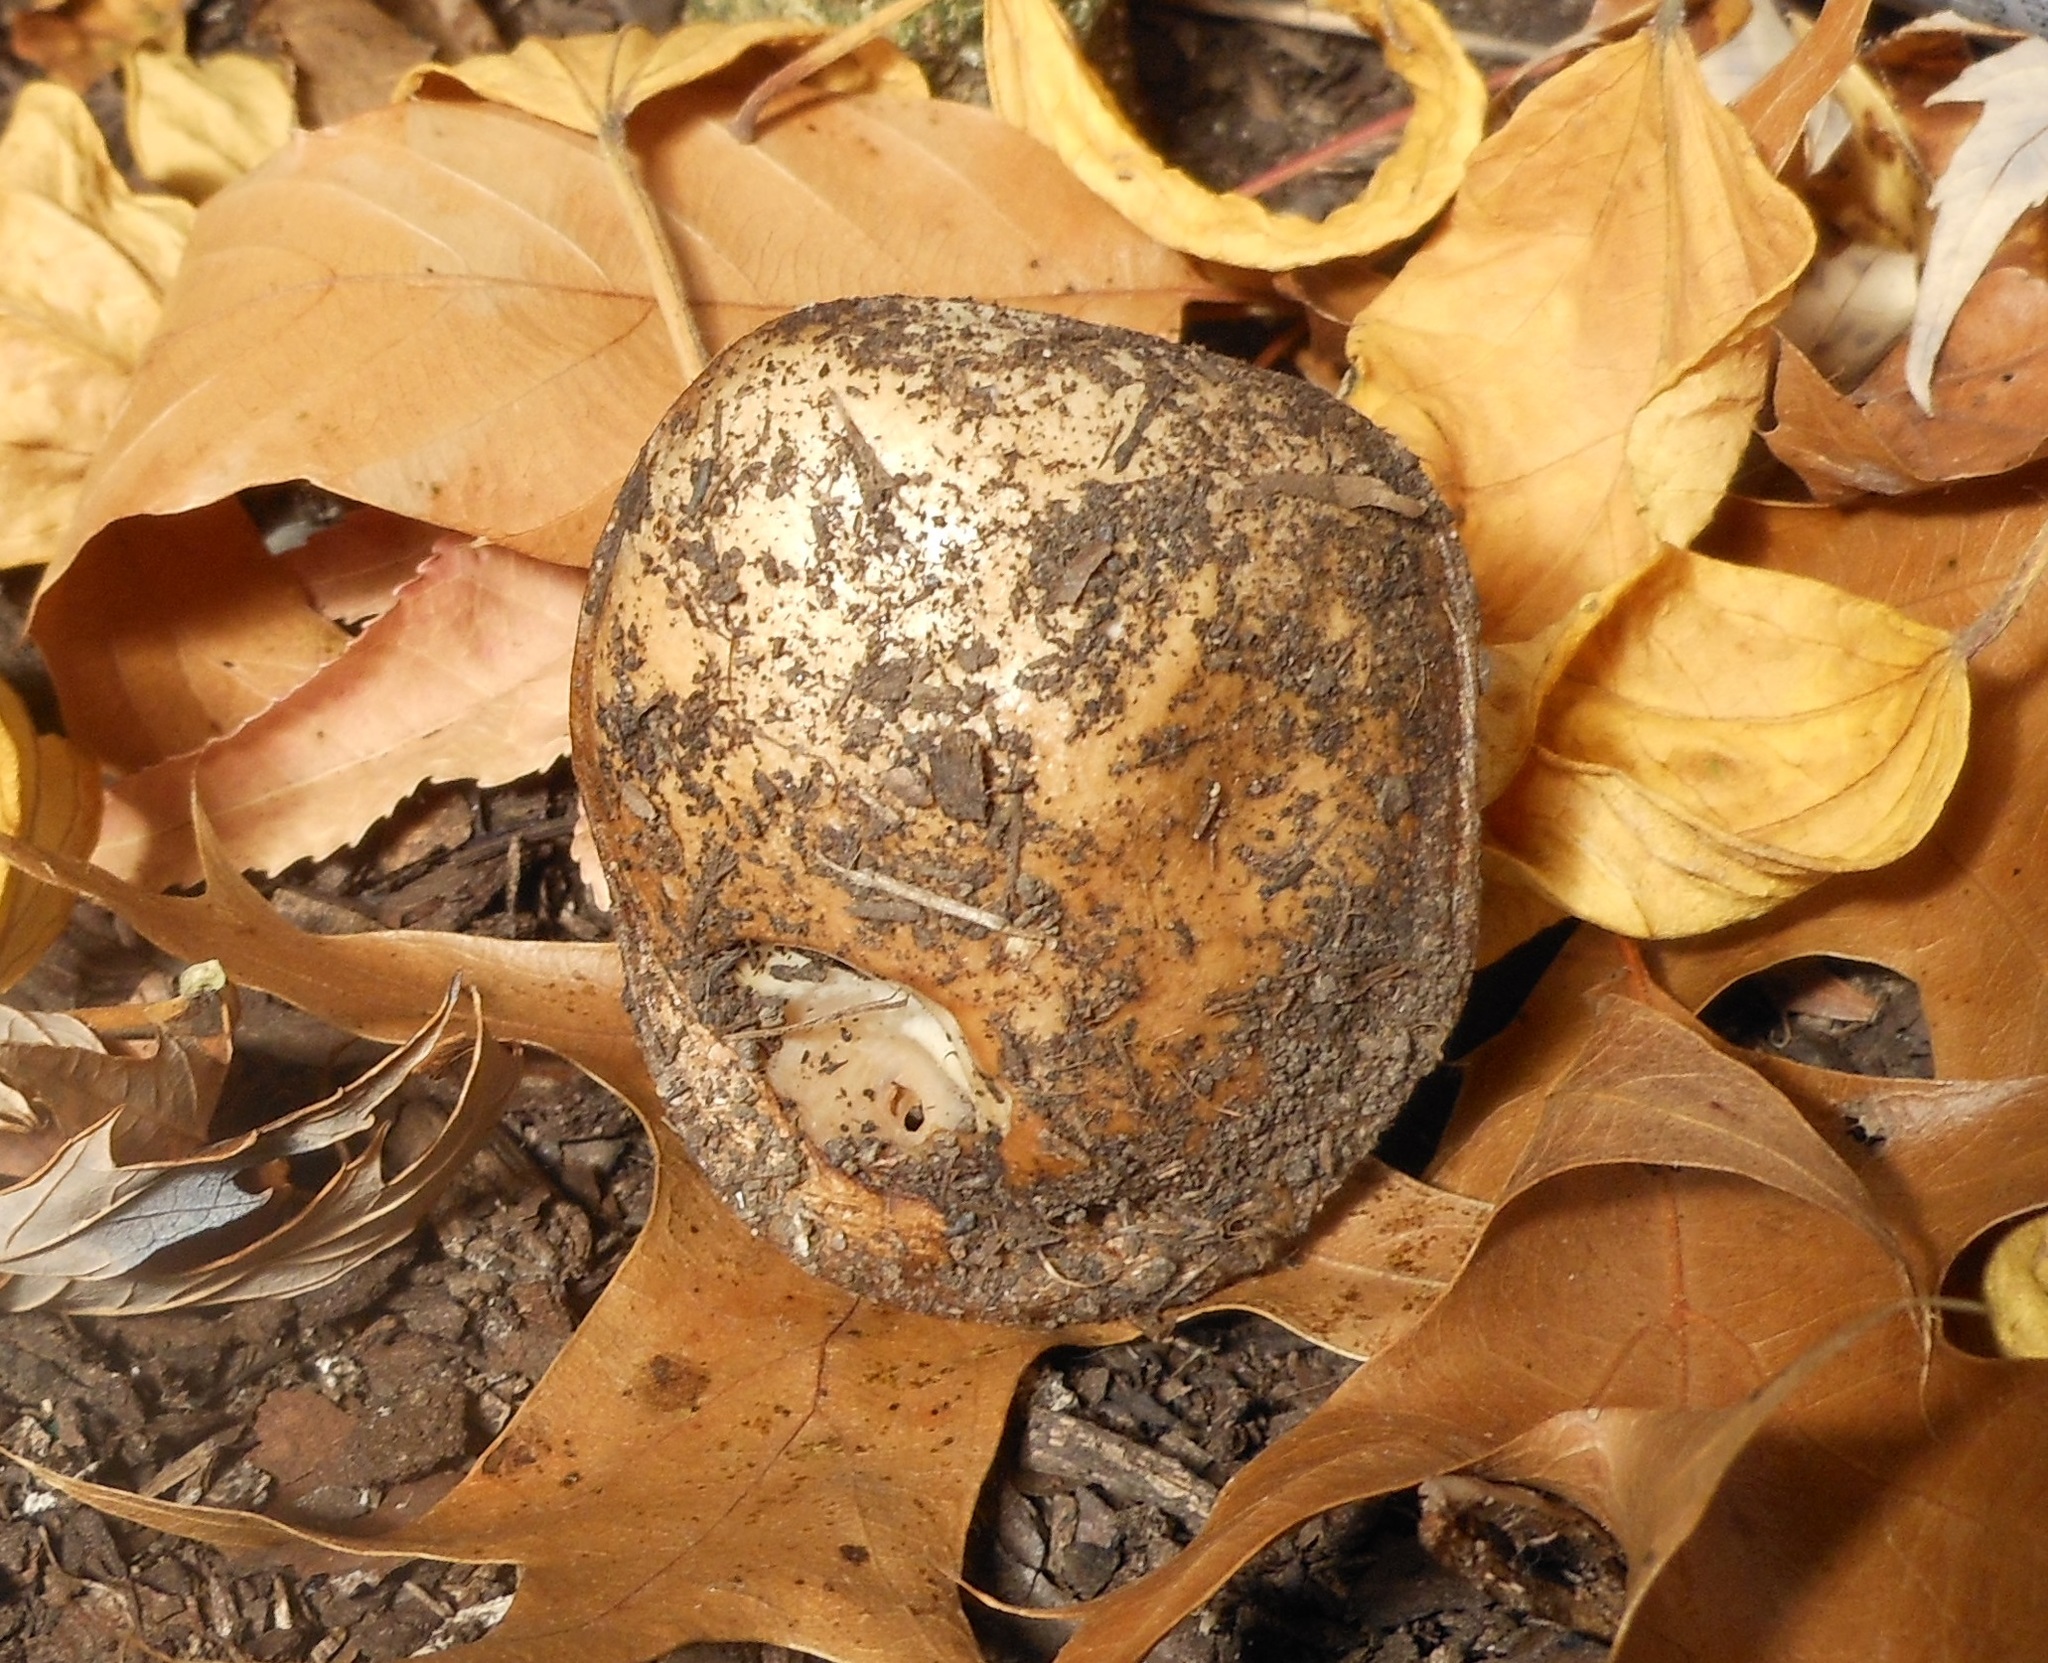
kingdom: Fungi
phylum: Basidiomycota
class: Agaricomycetes
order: Agaricales
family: Hymenogastraceae
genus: Hebeloma
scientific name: Hebeloma crustuliniforme
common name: Poison pie
